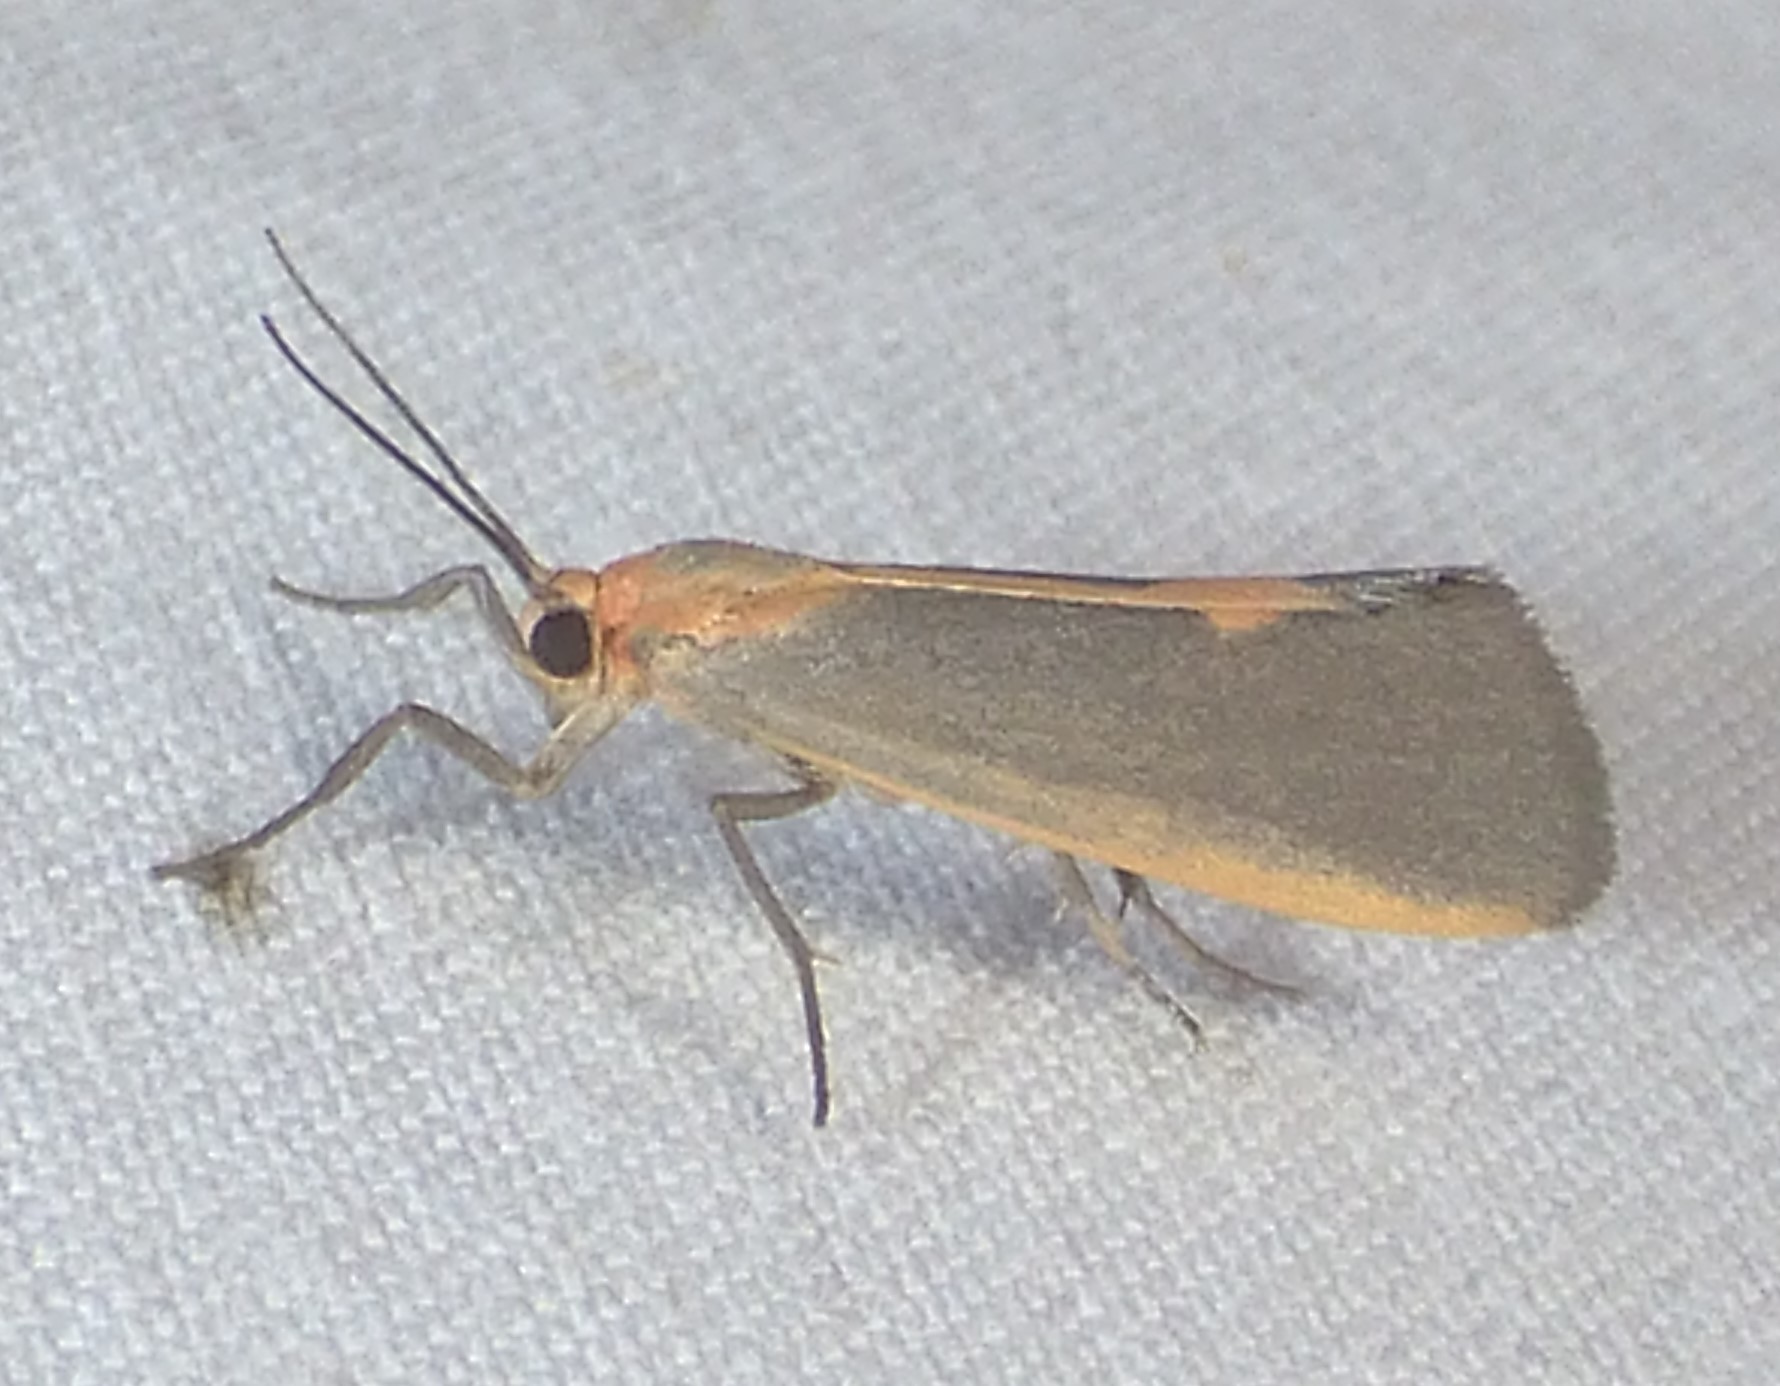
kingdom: Animalia
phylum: Arthropoda
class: Insecta
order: Lepidoptera
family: Erebidae
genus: Cisthene
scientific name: Cisthene plumbea
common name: Lead colored lichen moth
